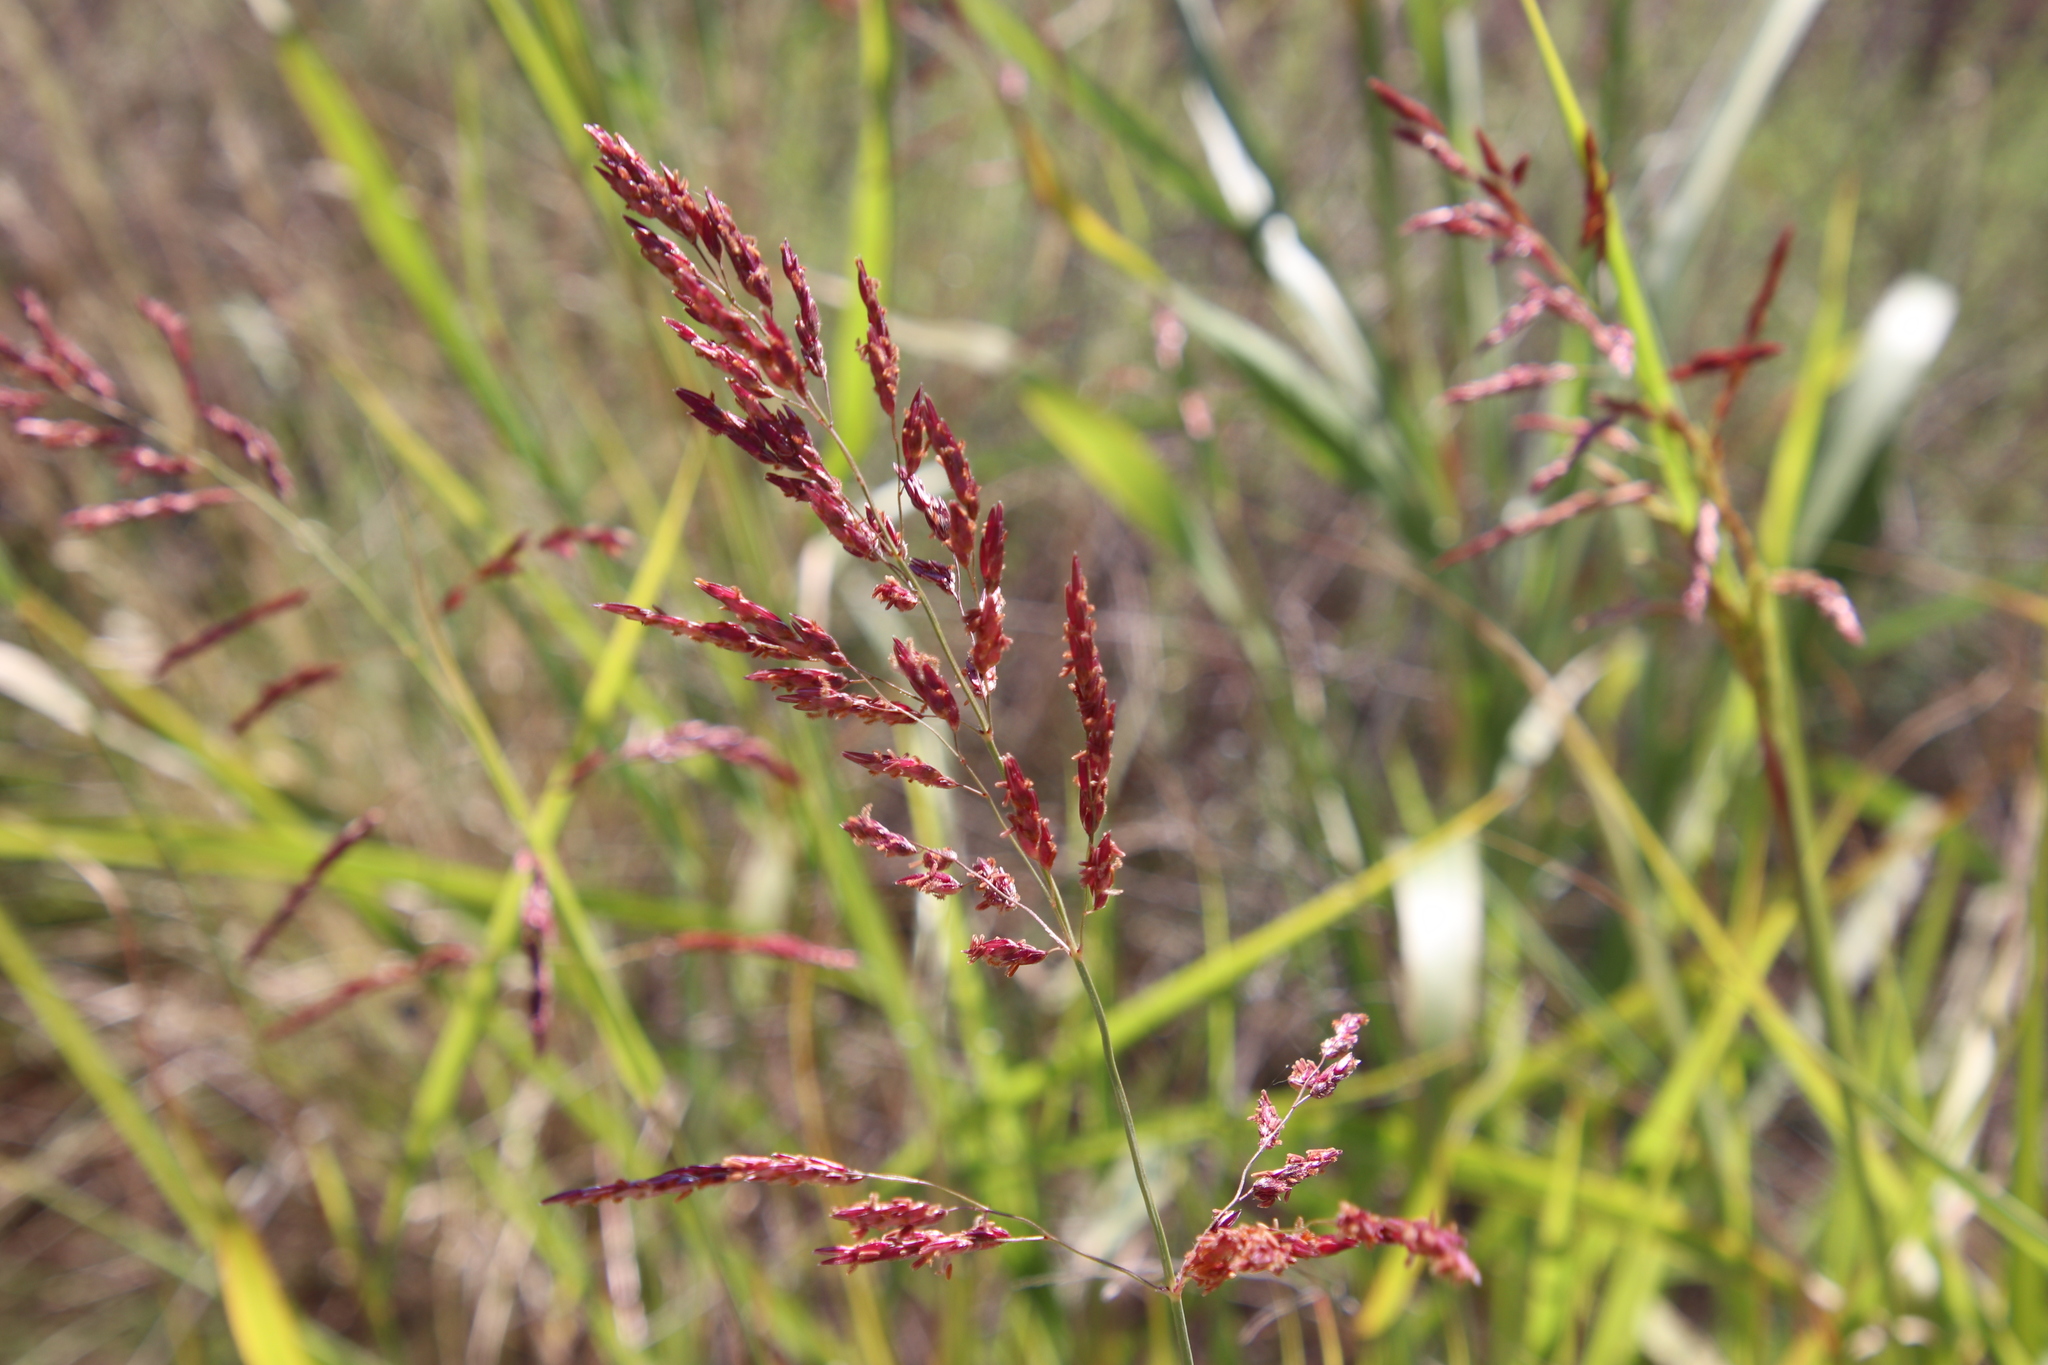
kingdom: Plantae
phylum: Tracheophyta
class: Liliopsida
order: Poales
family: Poaceae
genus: Sorghum
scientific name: Sorghum halepense
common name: Johnson-grass
